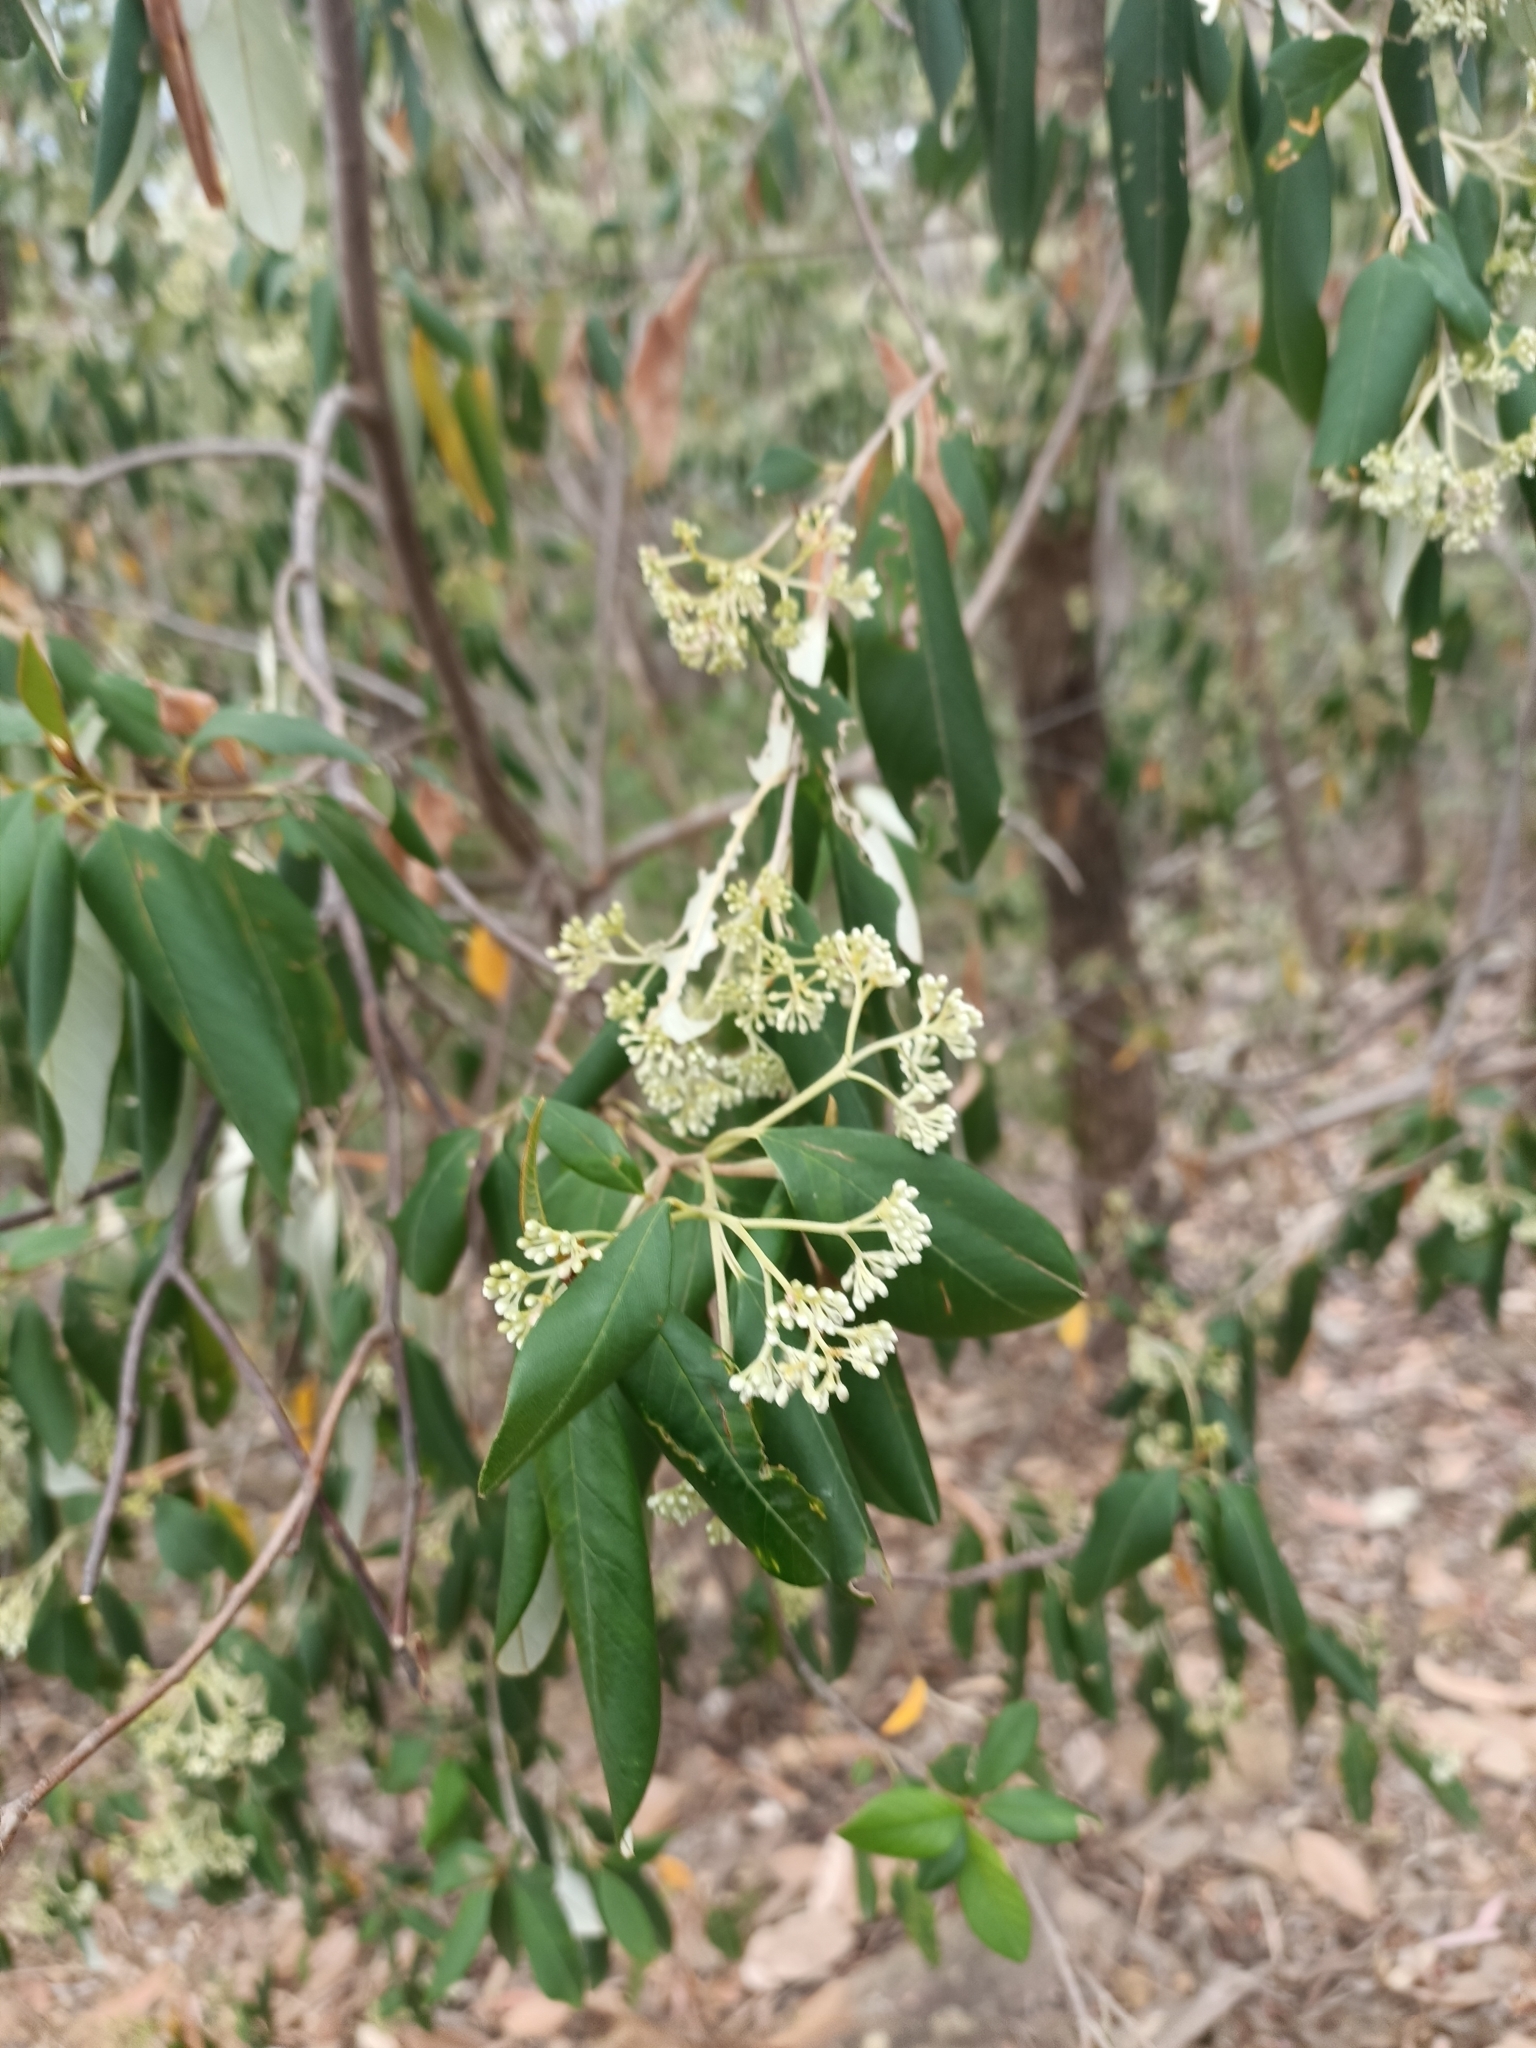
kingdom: Plantae
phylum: Tracheophyta
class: Magnoliopsida
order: Rosales
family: Rhamnaceae
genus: Alphitonia
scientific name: Alphitonia excelsa
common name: Red ash
